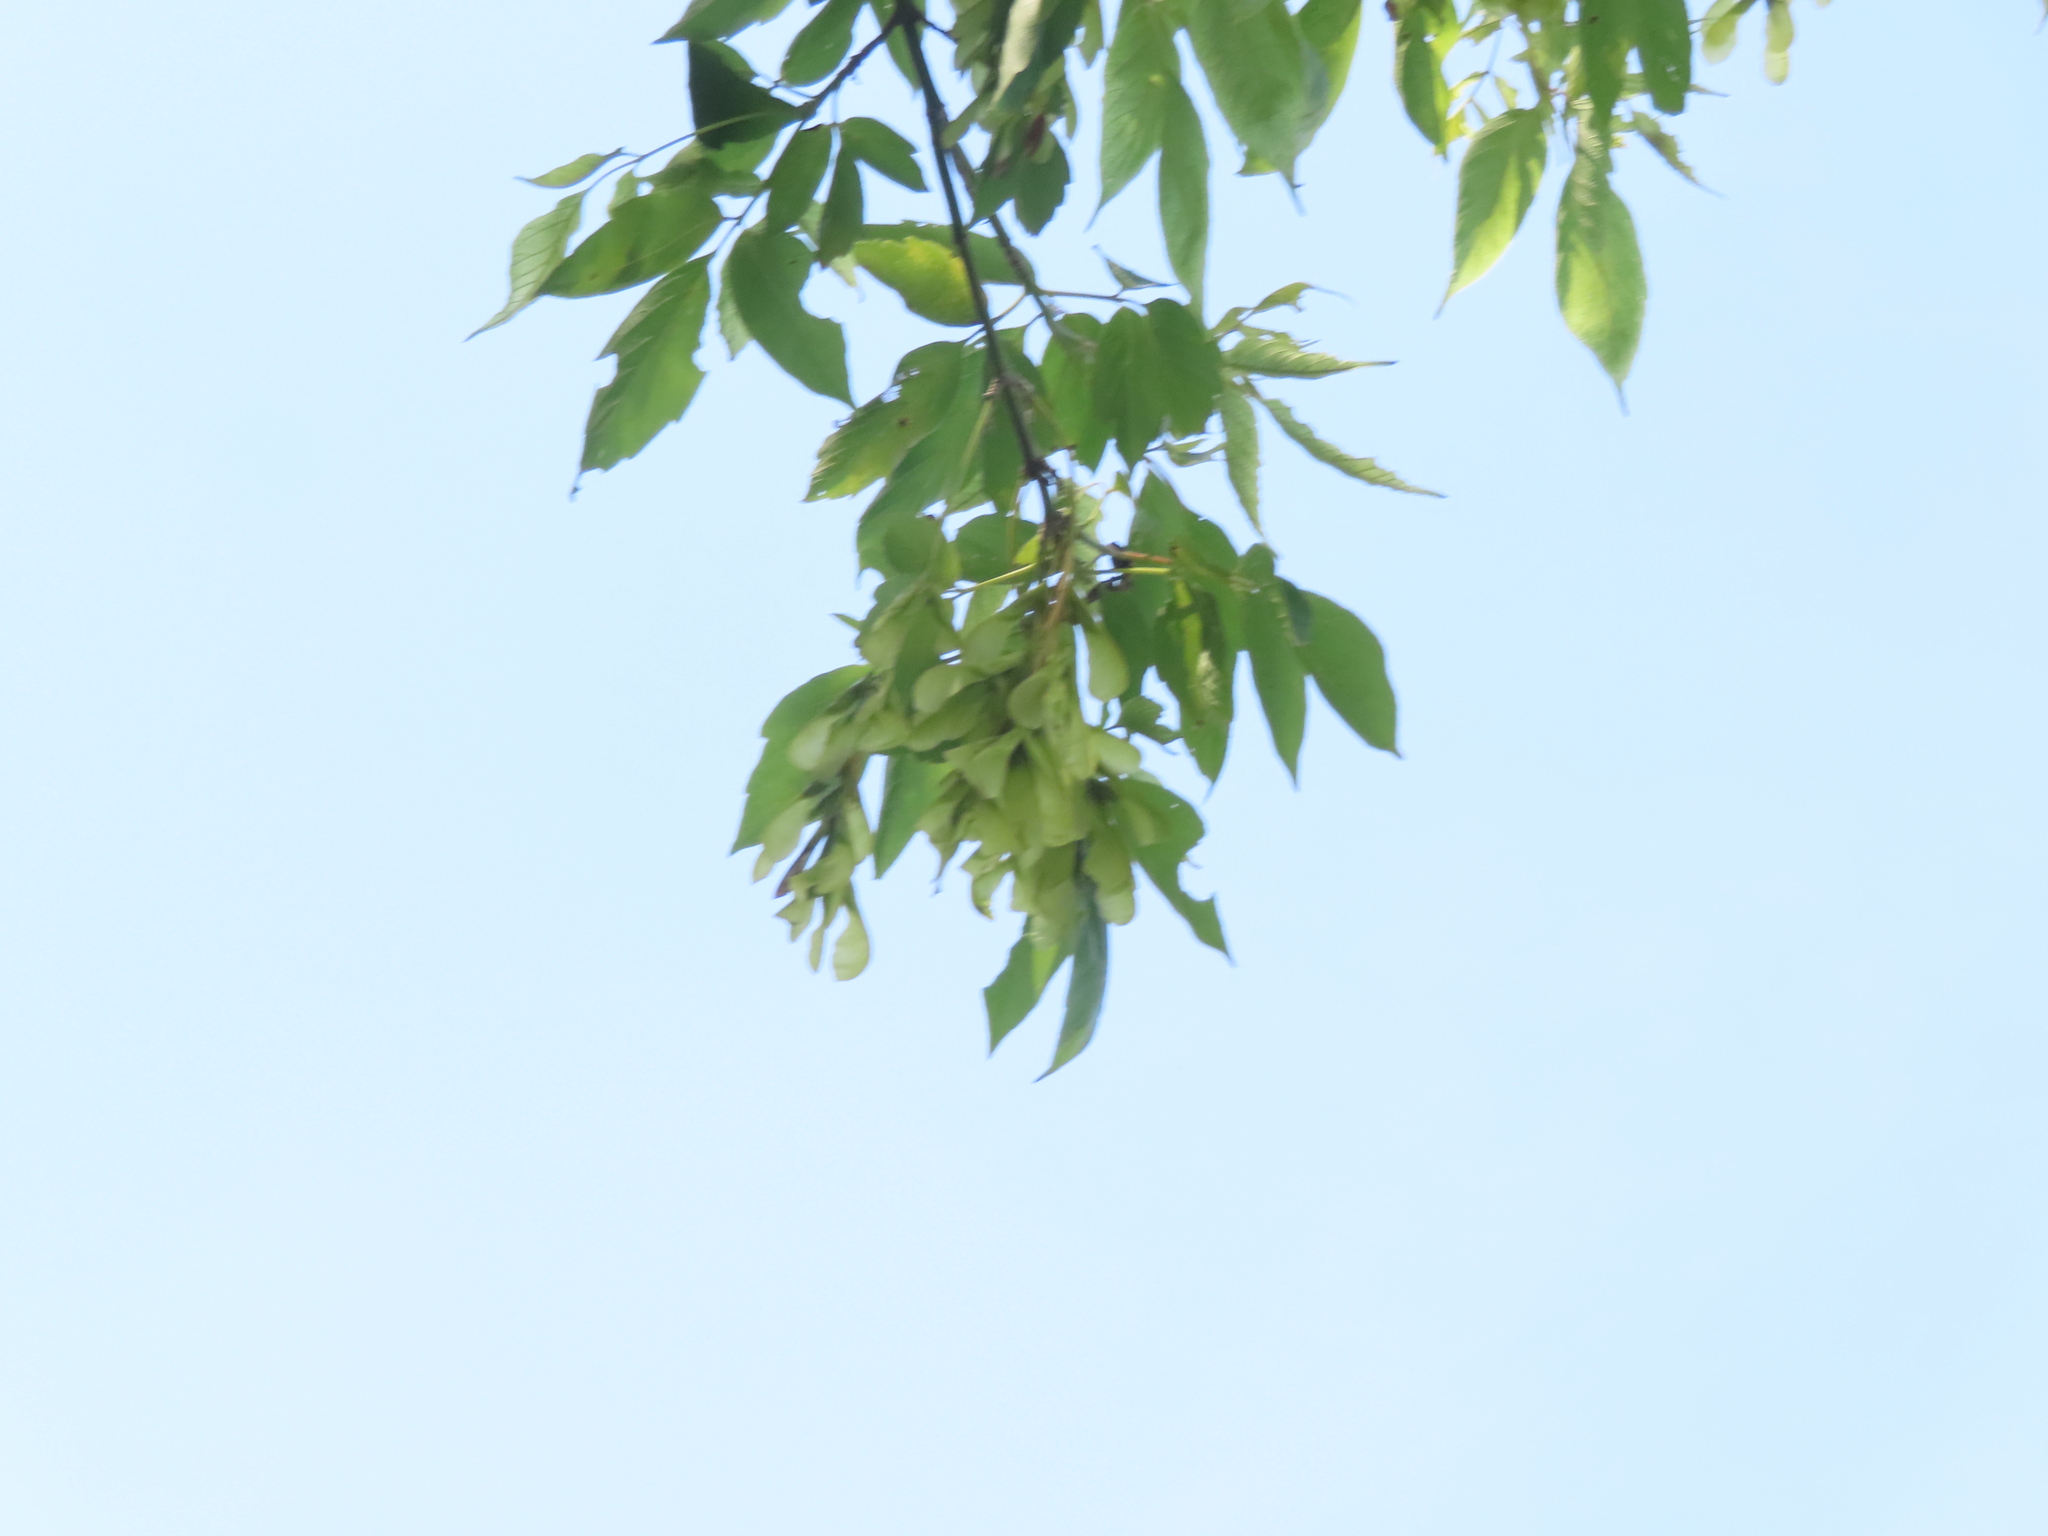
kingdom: Plantae
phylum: Tracheophyta
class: Magnoliopsida
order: Sapindales
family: Sapindaceae
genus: Acer
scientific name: Acer negundo
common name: Ashleaf maple
